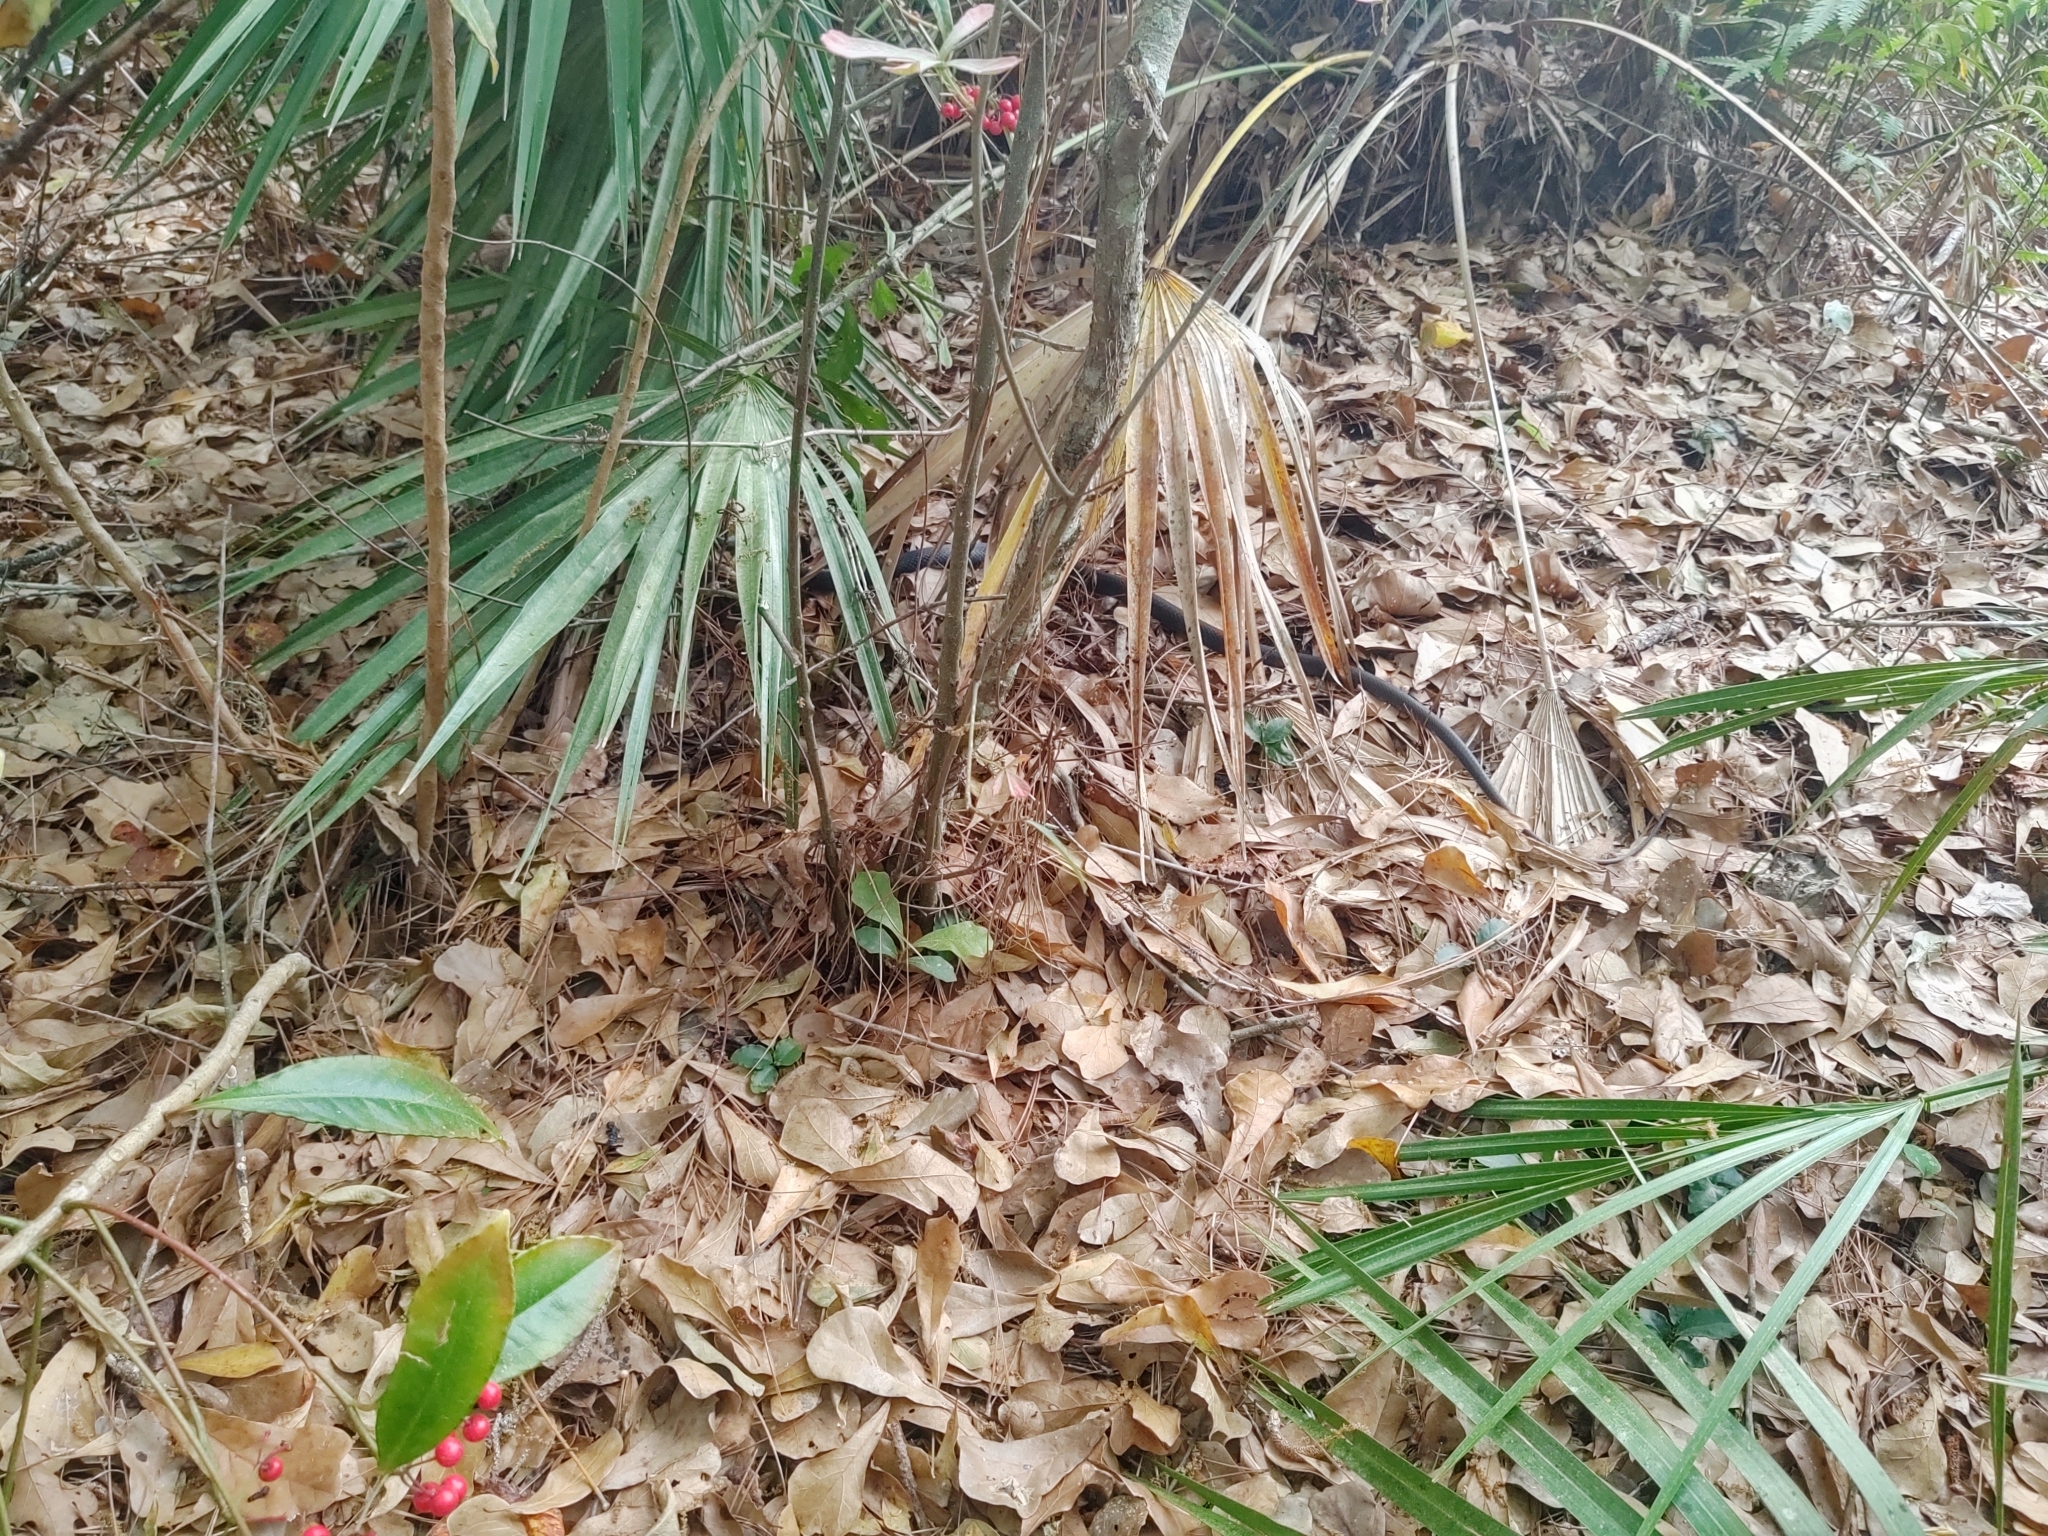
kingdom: Animalia
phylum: Chordata
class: Squamata
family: Colubridae
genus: Coluber
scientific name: Coluber constrictor
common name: Eastern racer
